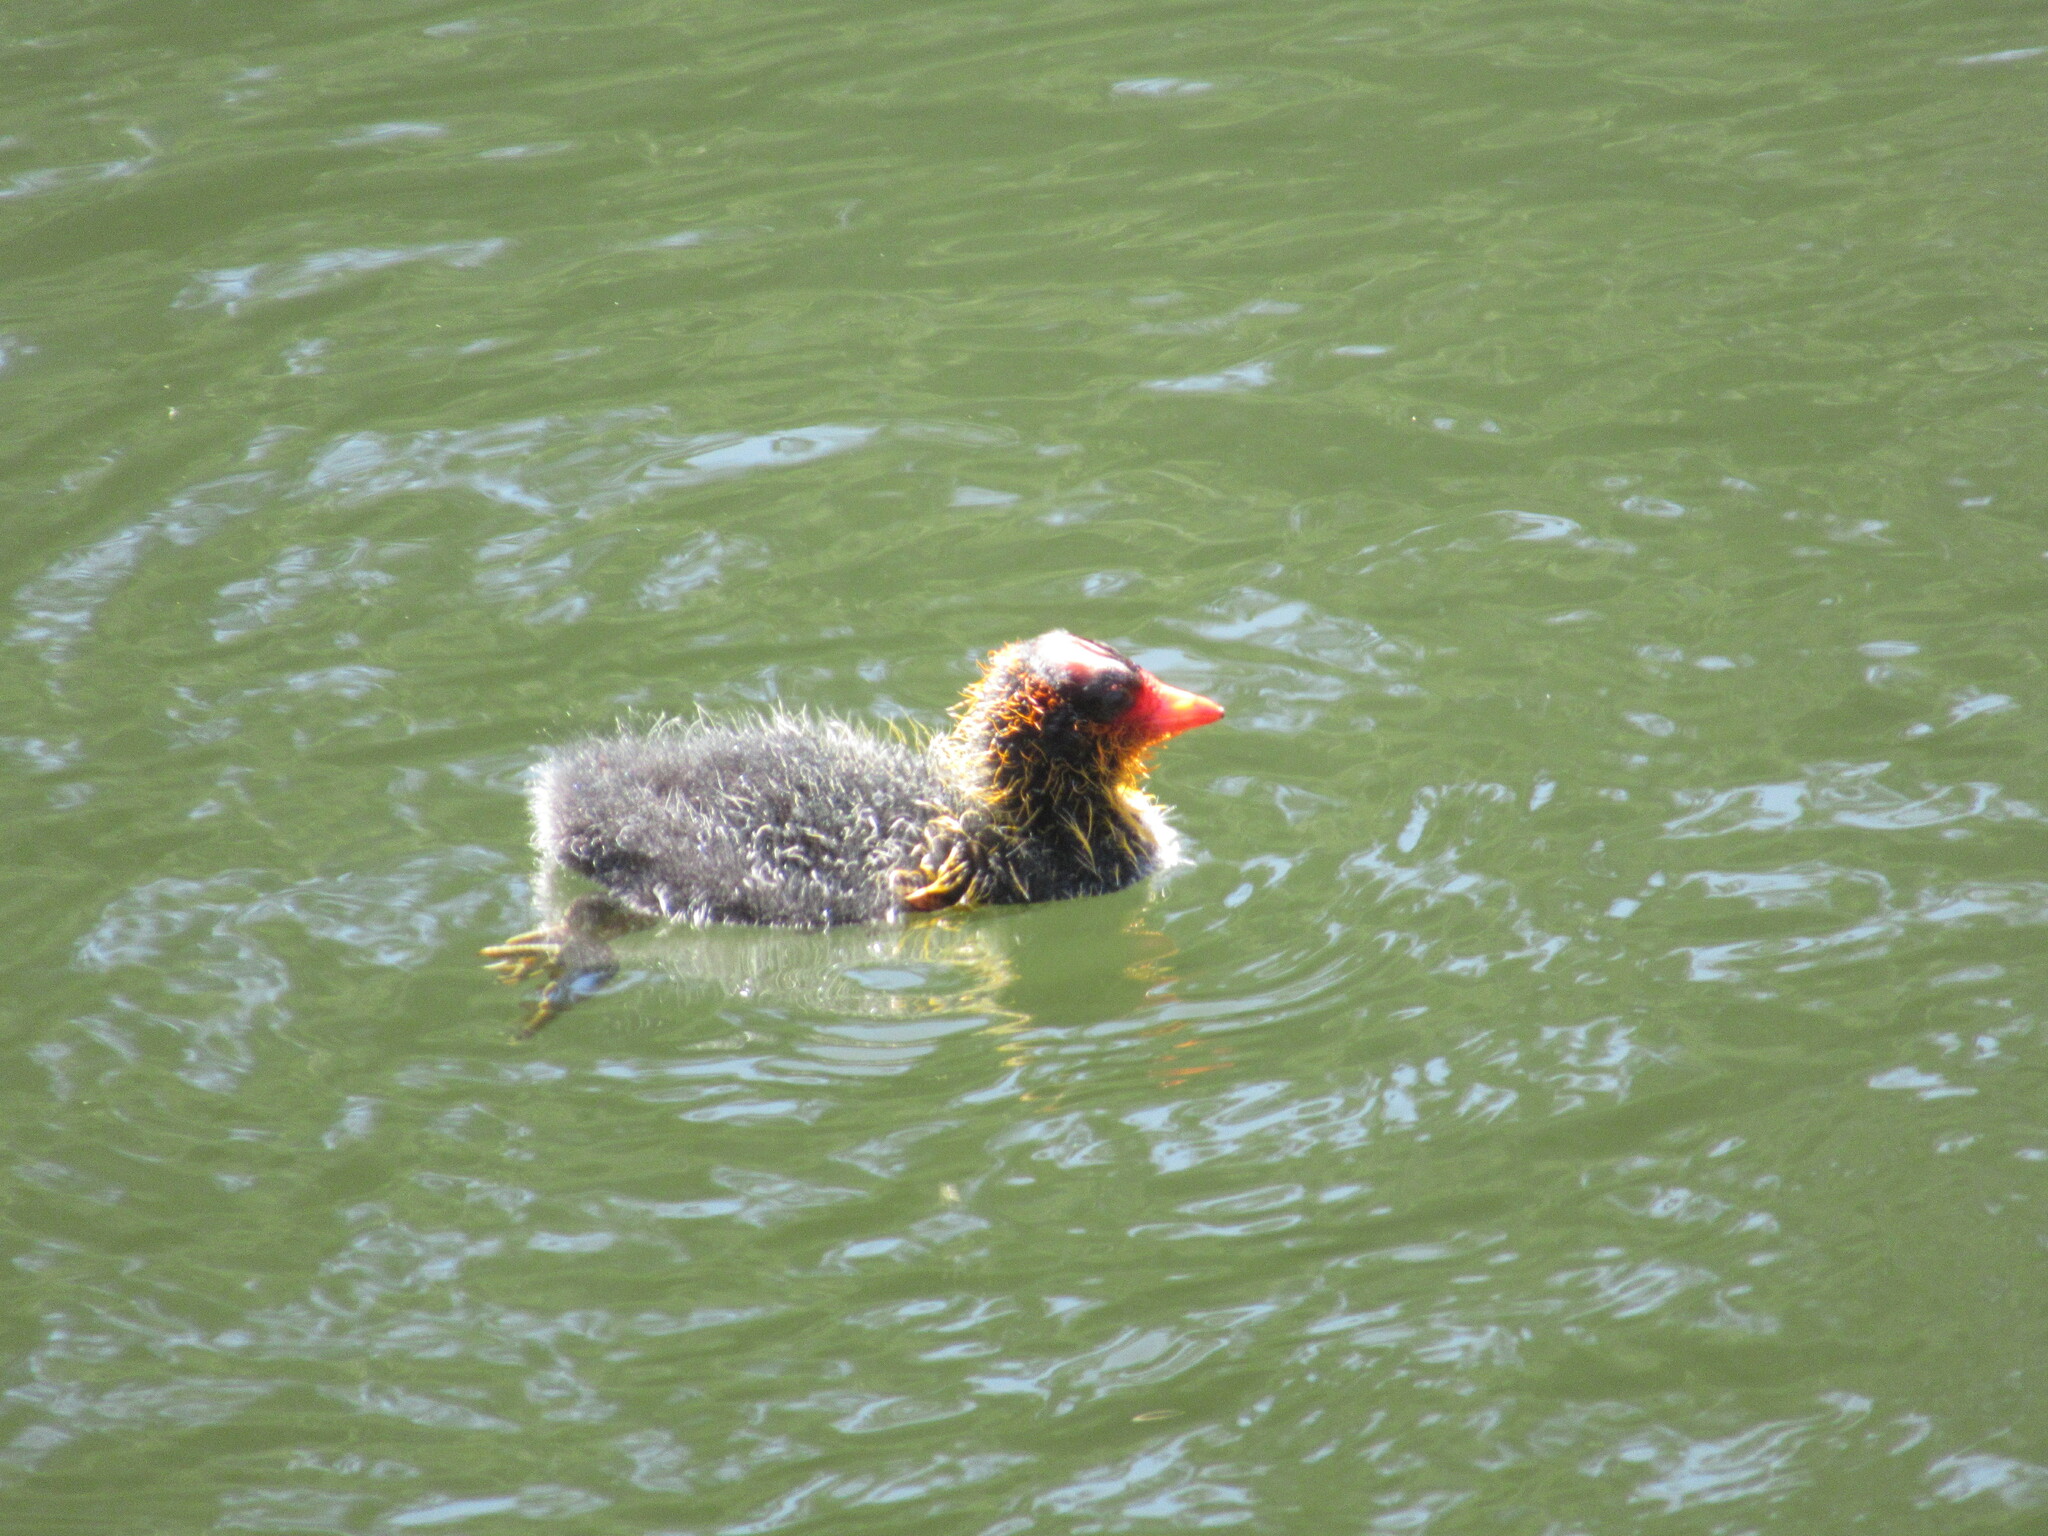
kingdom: Animalia
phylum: Chordata
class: Aves
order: Gruiformes
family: Rallidae
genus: Fulica
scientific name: Fulica americana
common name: American coot
